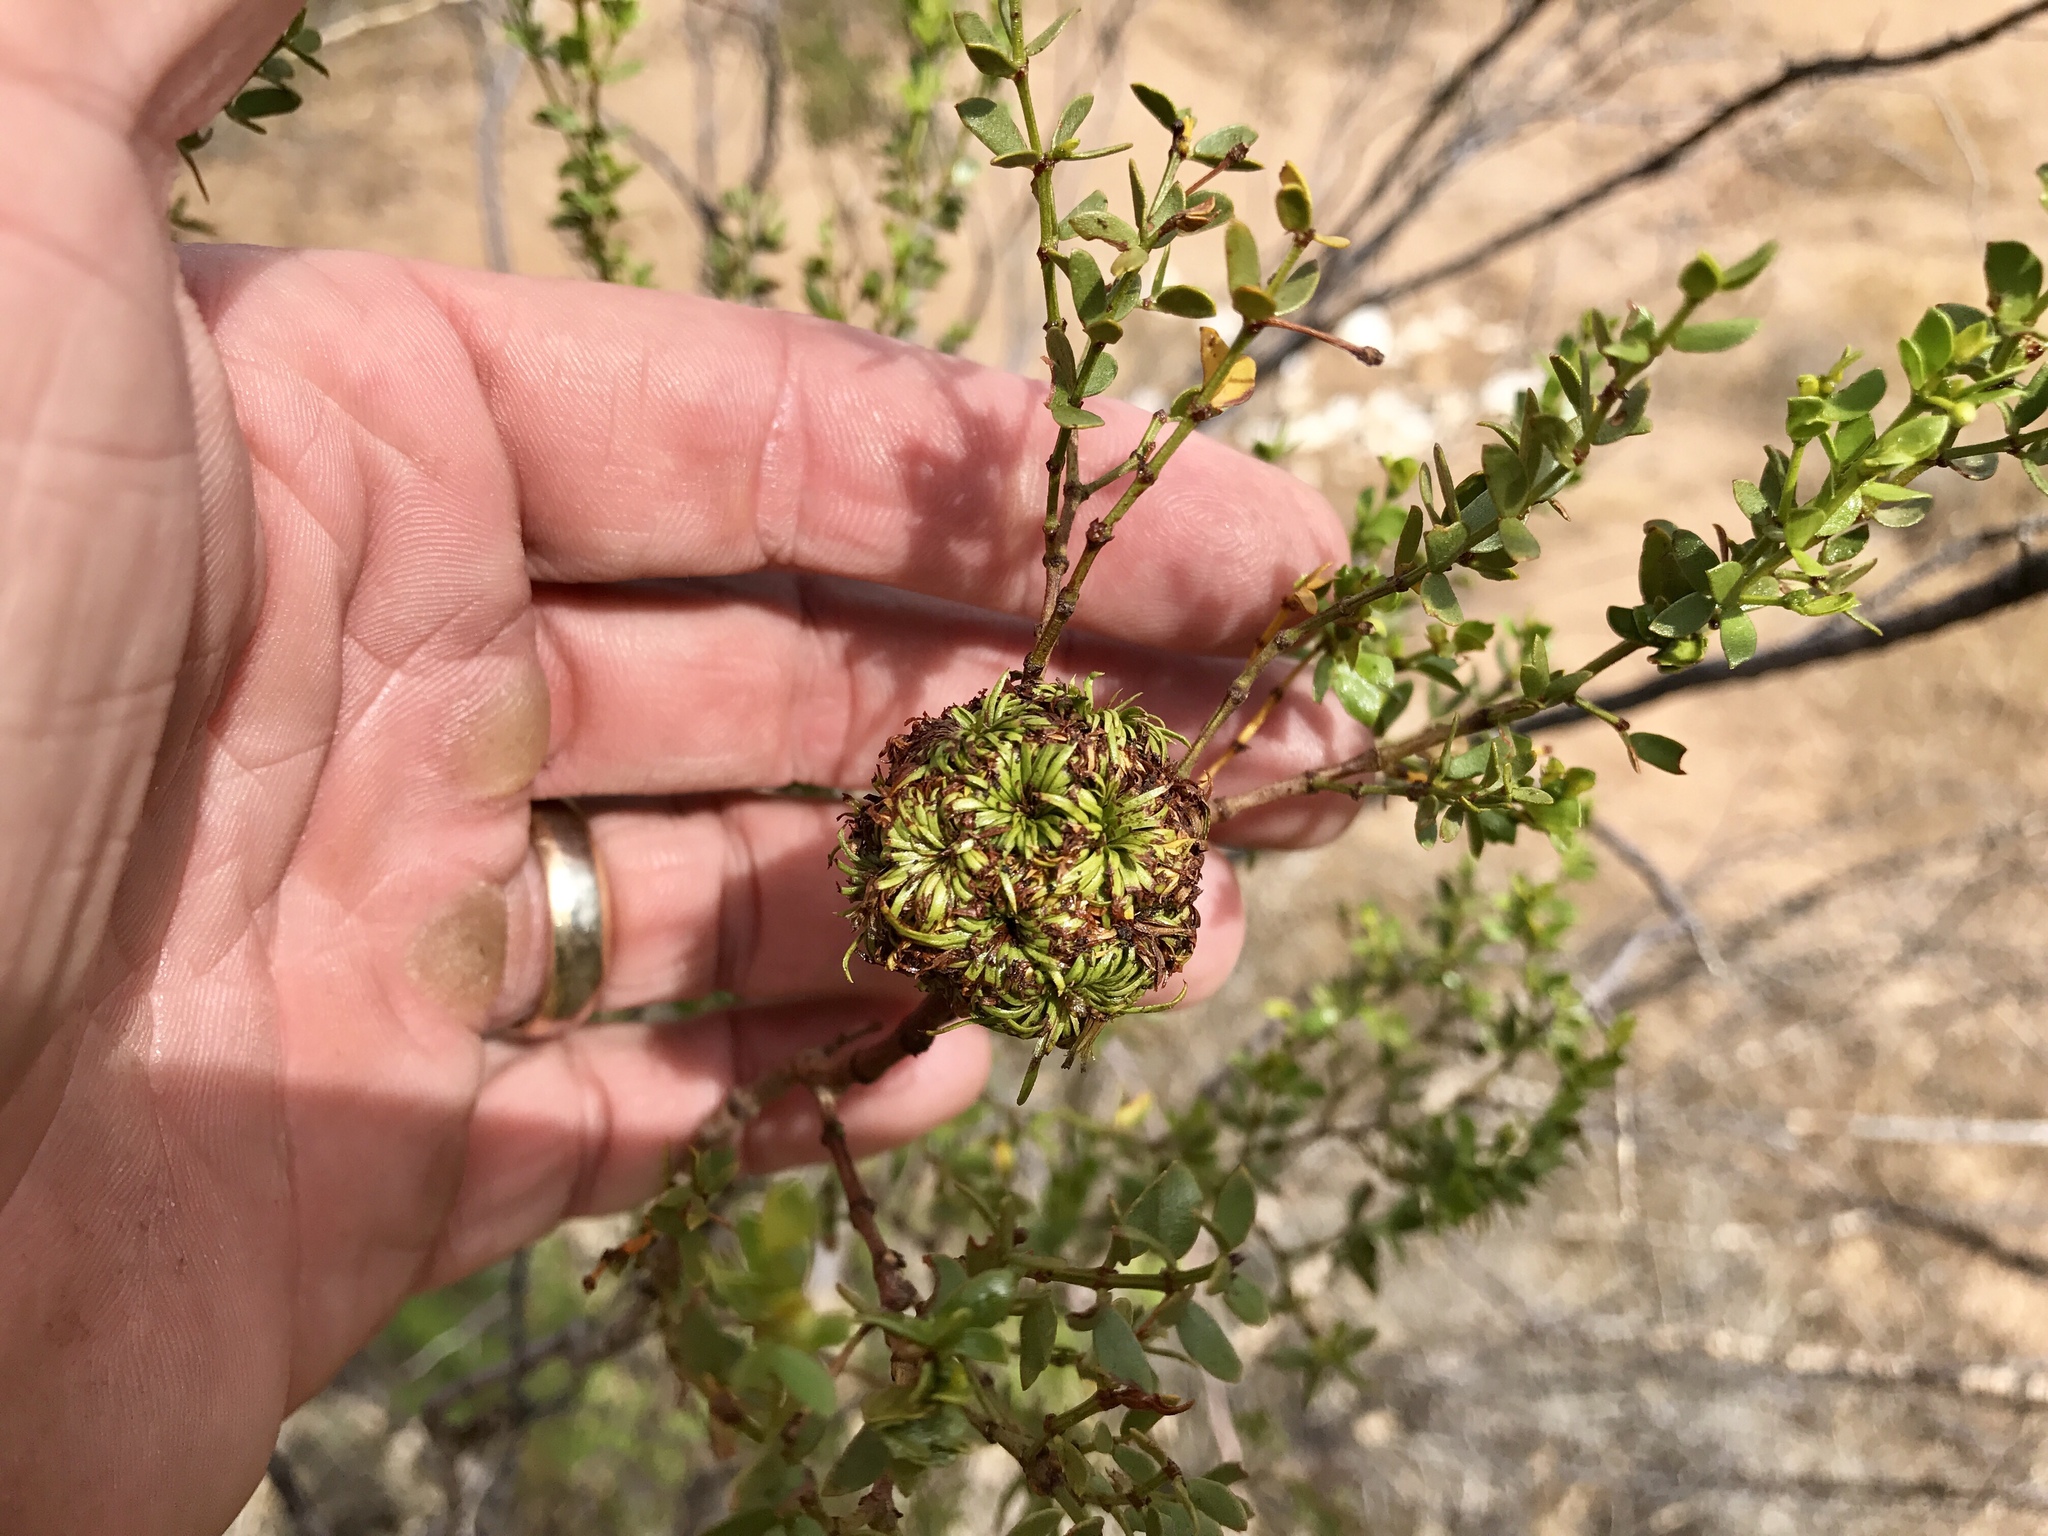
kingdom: Animalia
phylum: Arthropoda
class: Insecta
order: Diptera
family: Cecidomyiidae
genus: Asphondylia
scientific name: Asphondylia auripila
